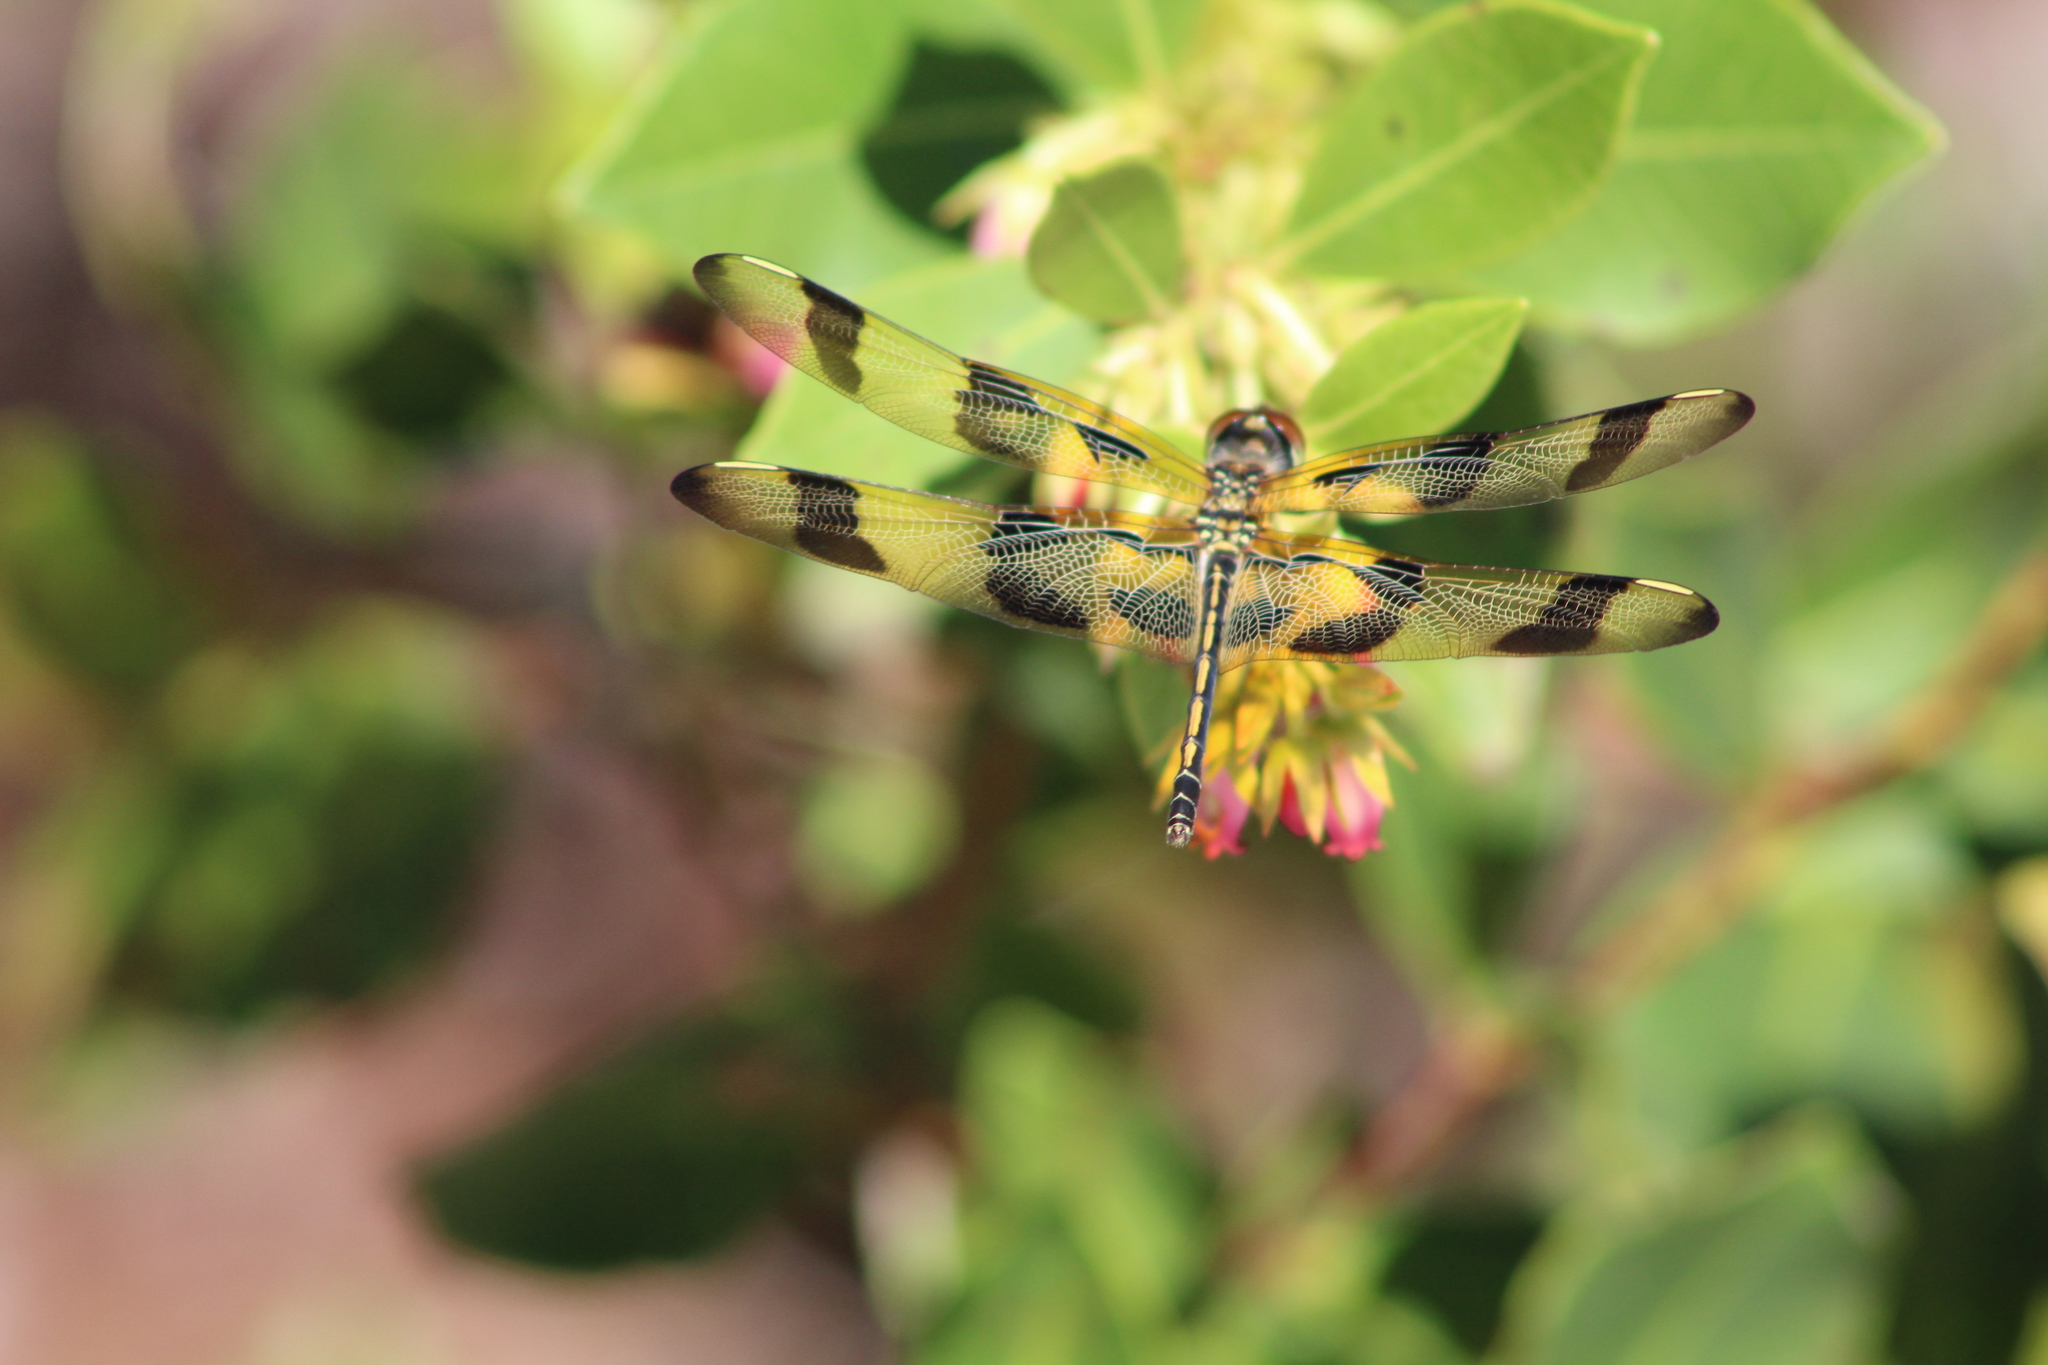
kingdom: Animalia
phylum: Arthropoda
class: Insecta
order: Odonata
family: Libellulidae
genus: Celithemis
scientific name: Celithemis eponina
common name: Halloween pennant
